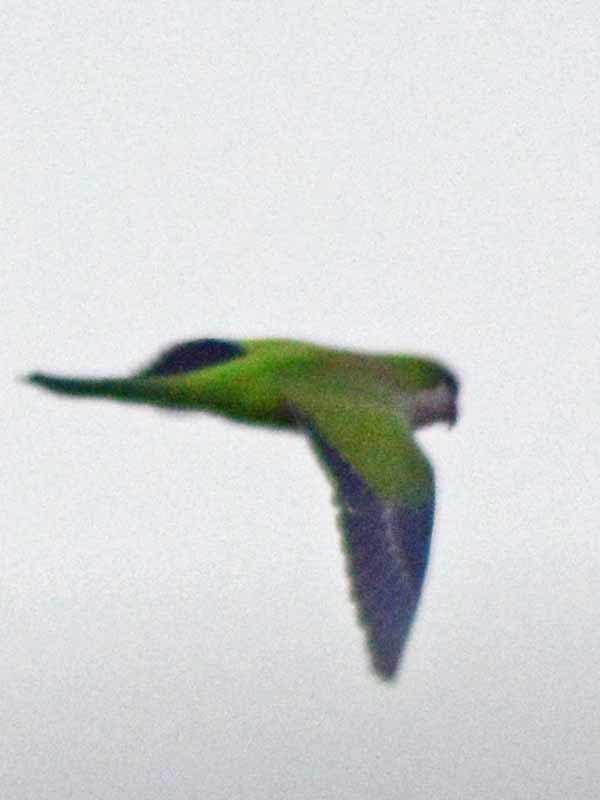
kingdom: Animalia
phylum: Chordata
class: Aves
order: Psittaciformes
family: Psittacidae
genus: Myiopsitta
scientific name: Myiopsitta monachus
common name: Monk parakeet
